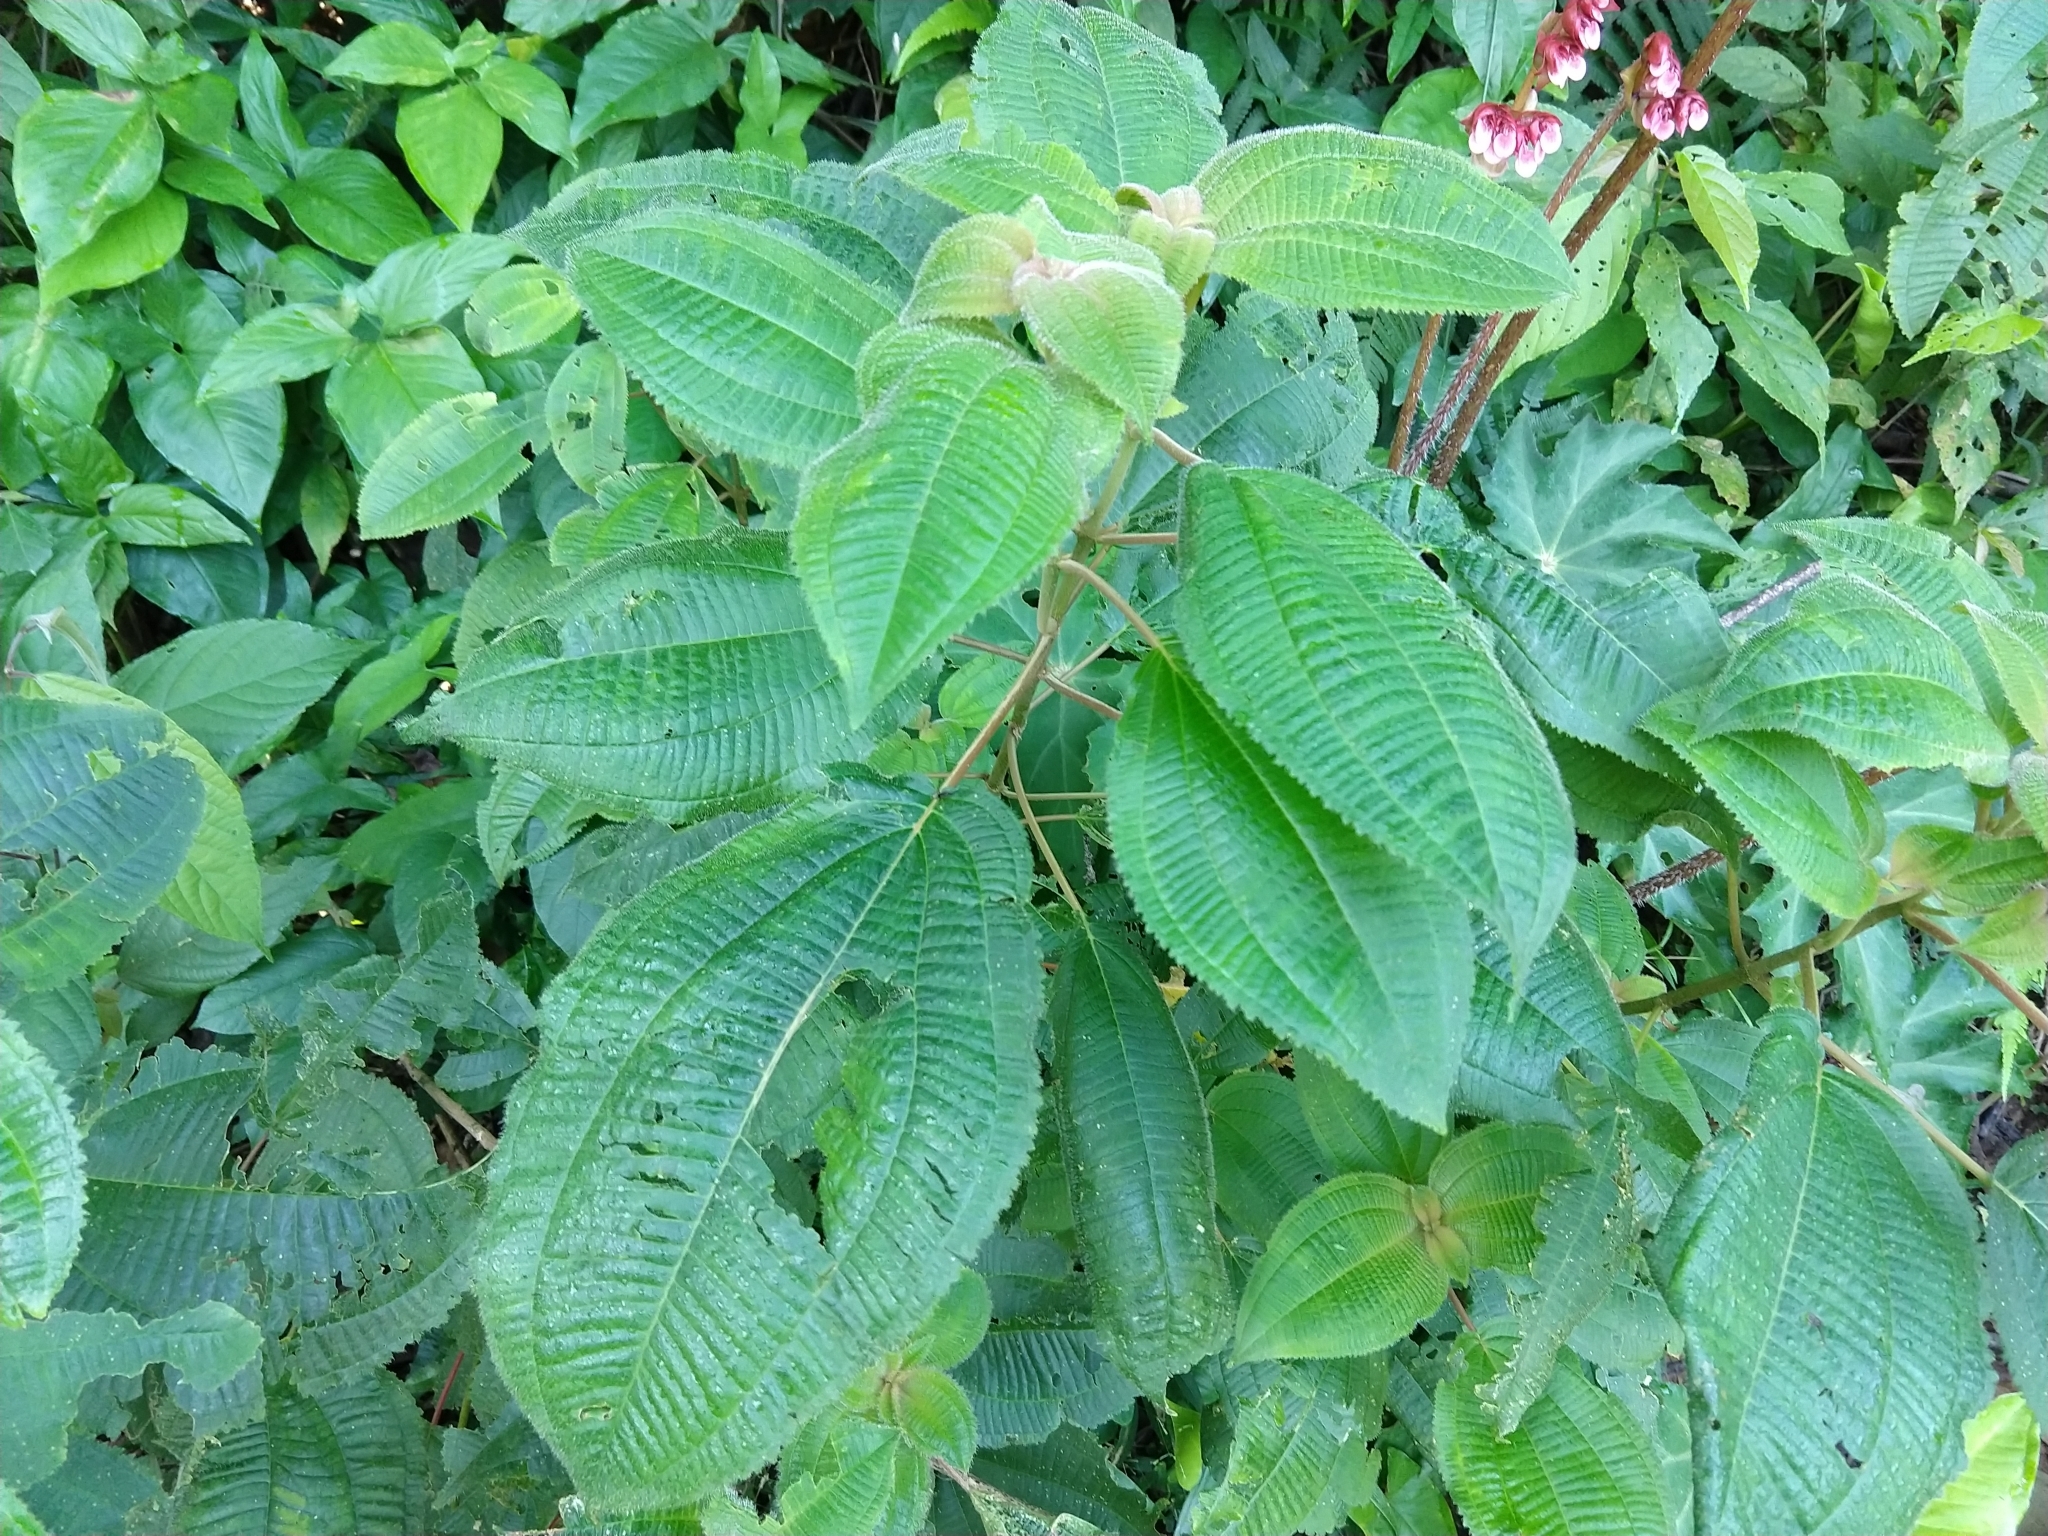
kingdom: Plantae
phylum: Tracheophyta
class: Magnoliopsida
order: Cucurbitales
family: Begoniaceae
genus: Begonia
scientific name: Begonia heracleifolia
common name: Star begonia
